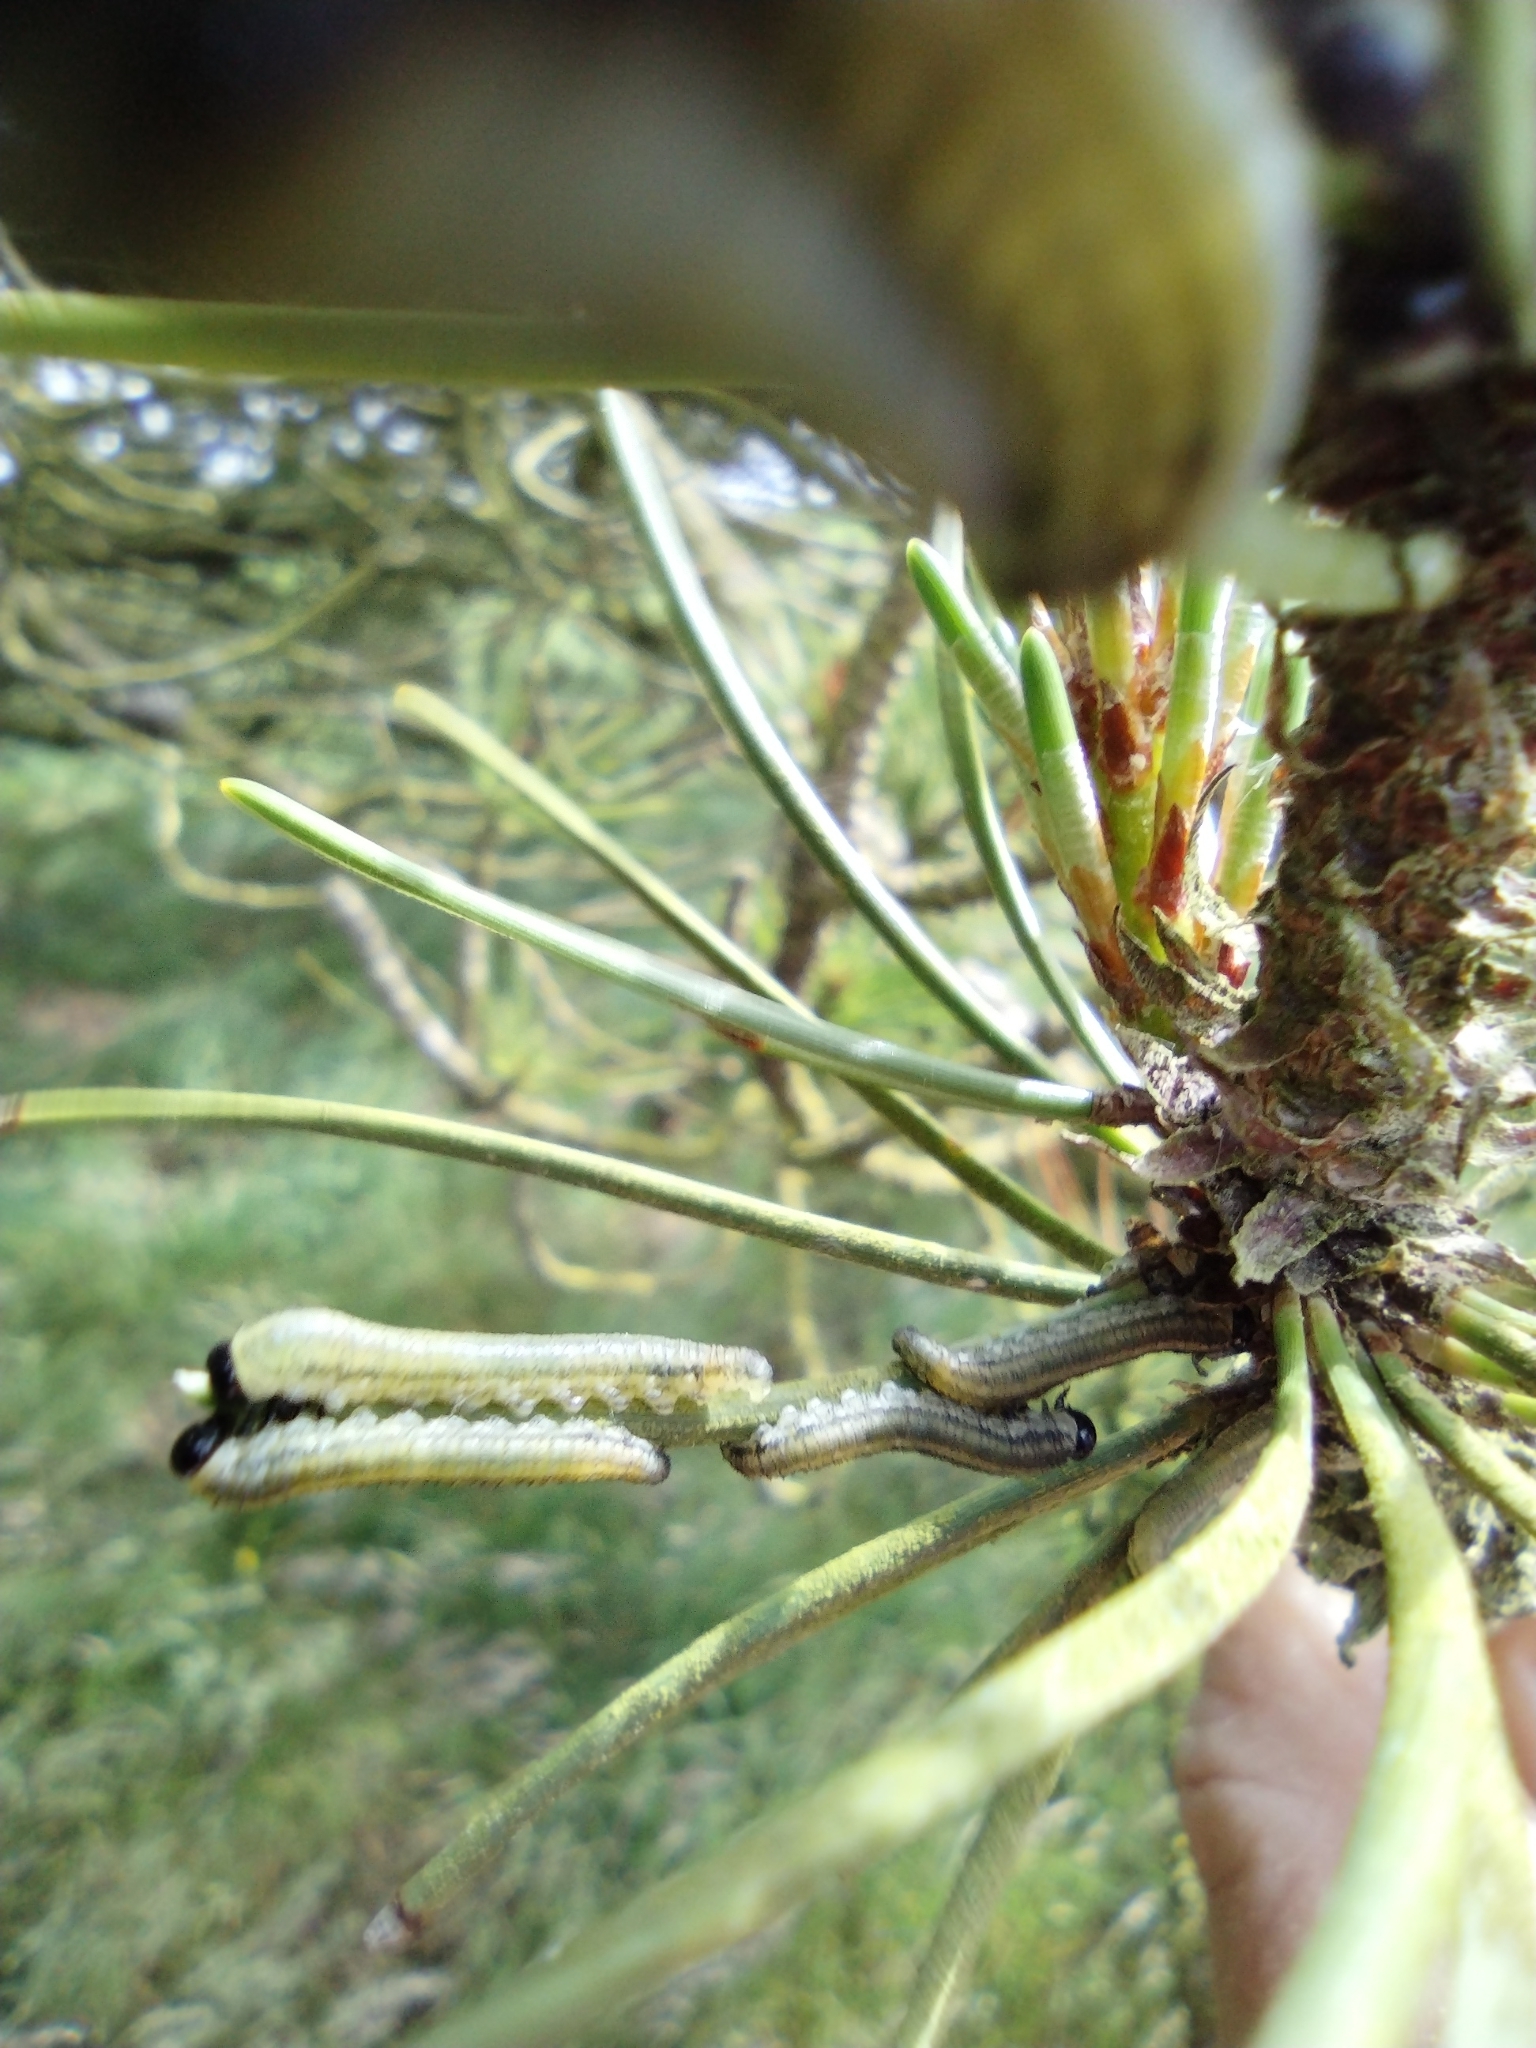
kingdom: Animalia
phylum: Arthropoda
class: Insecta
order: Hymenoptera
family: Diprionidae
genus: Neodiprion
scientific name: Neodiprion sertifer
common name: European pine sawfly
